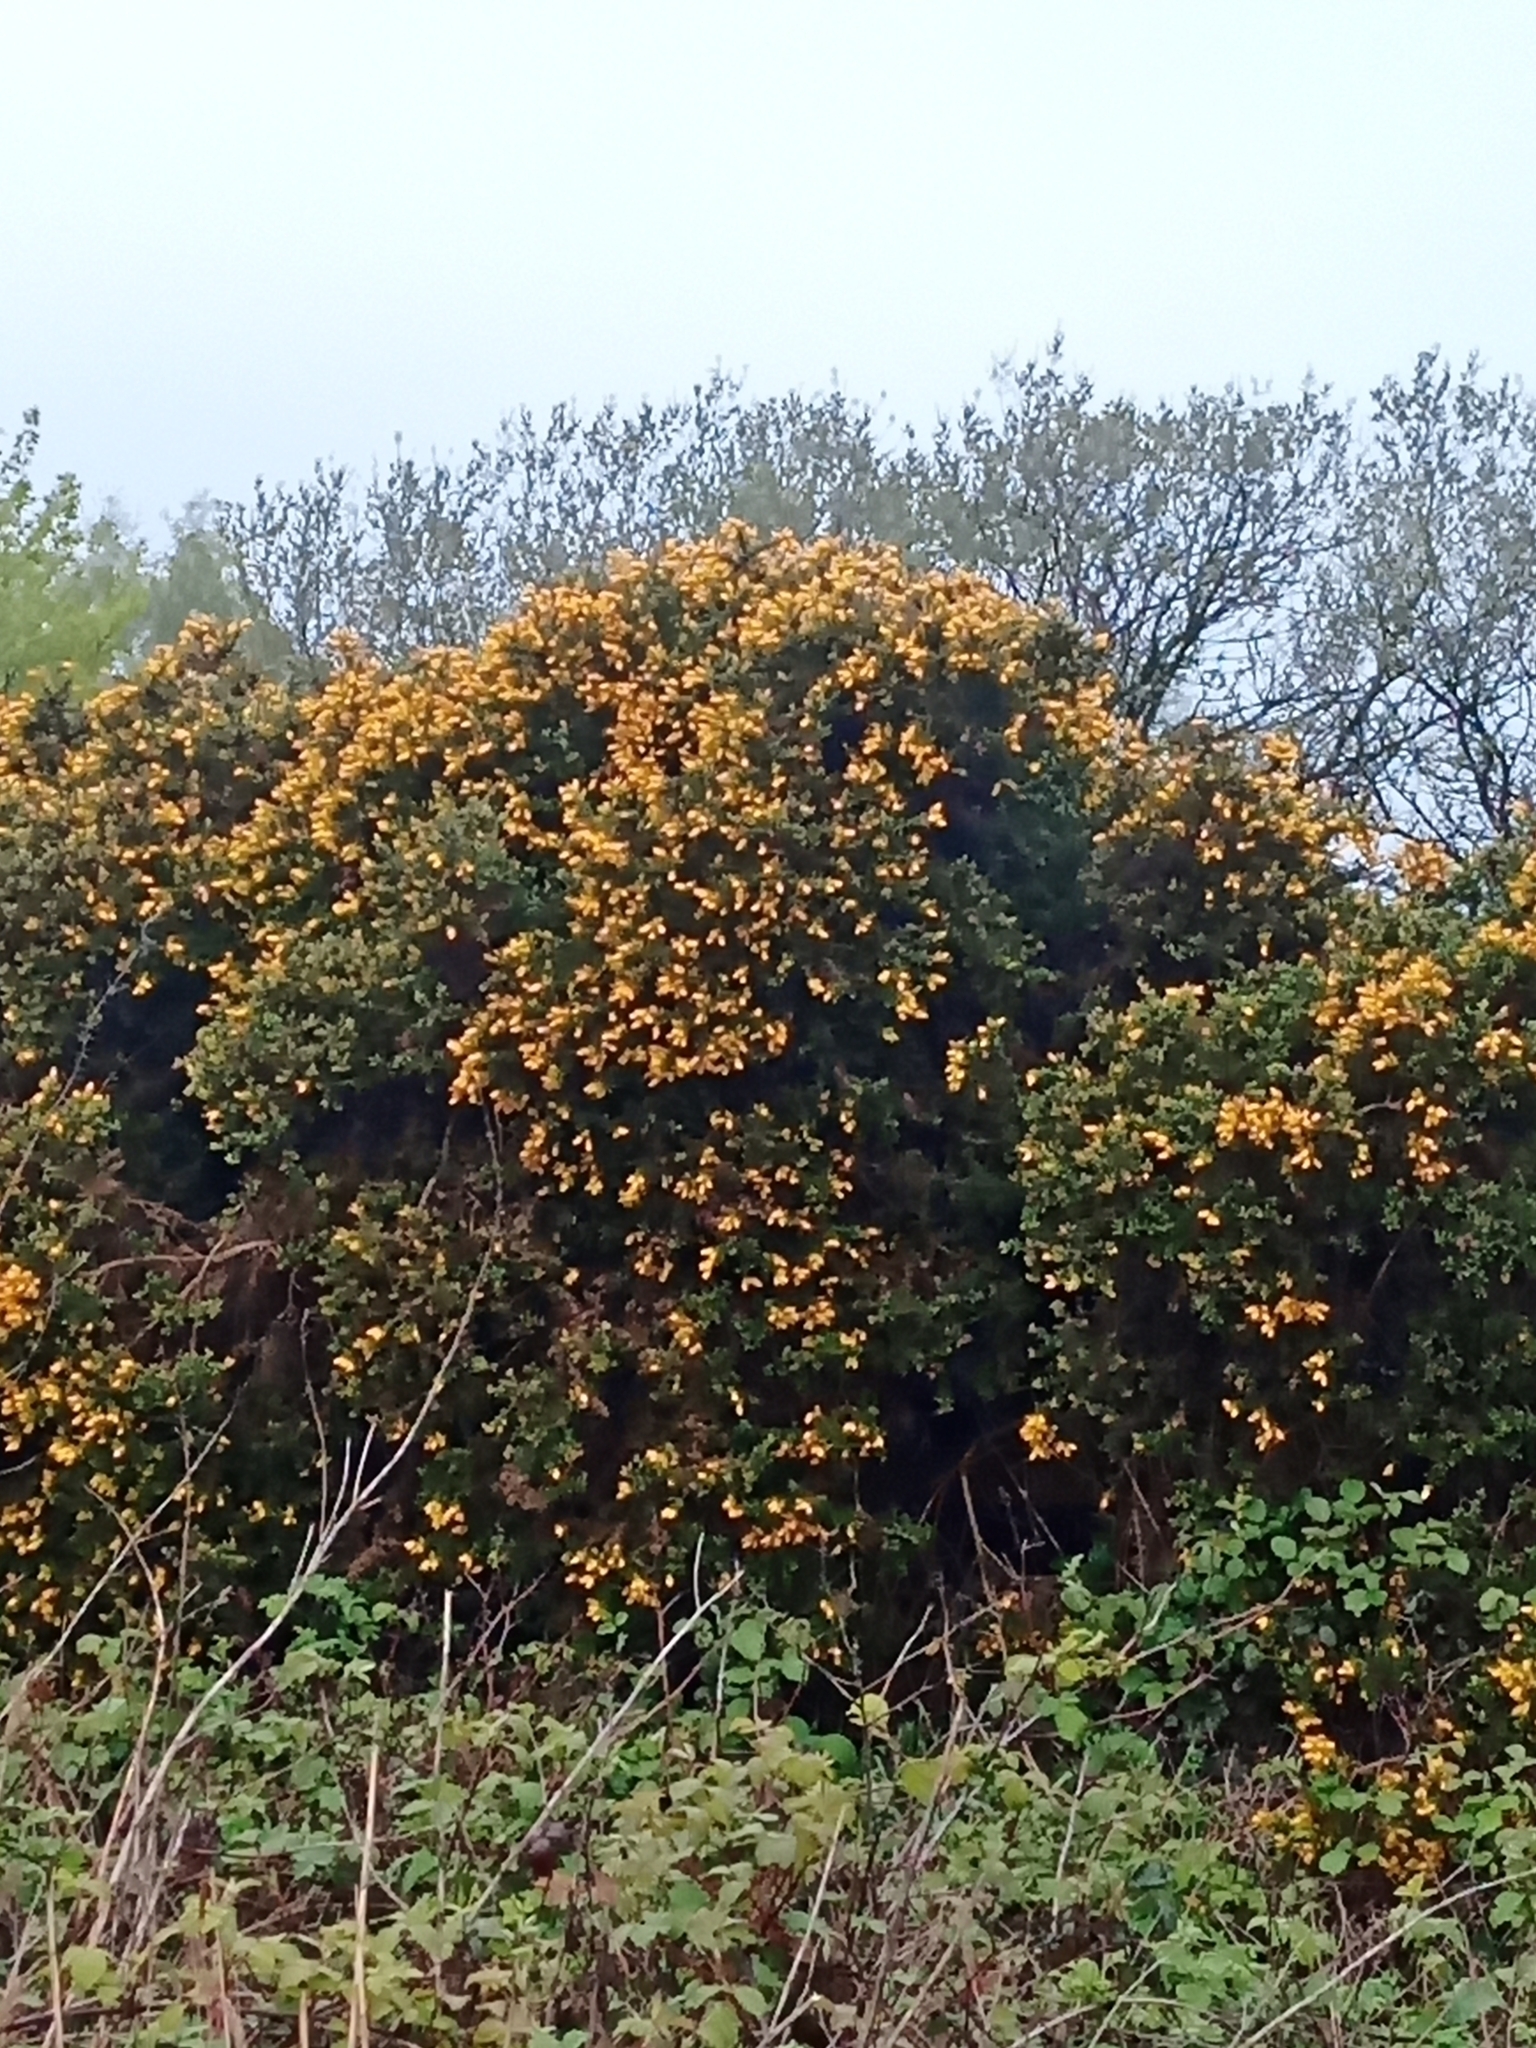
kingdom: Plantae
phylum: Tracheophyta
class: Magnoliopsida
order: Fabales
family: Fabaceae
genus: Ulex
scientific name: Ulex europaeus
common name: Common gorse
